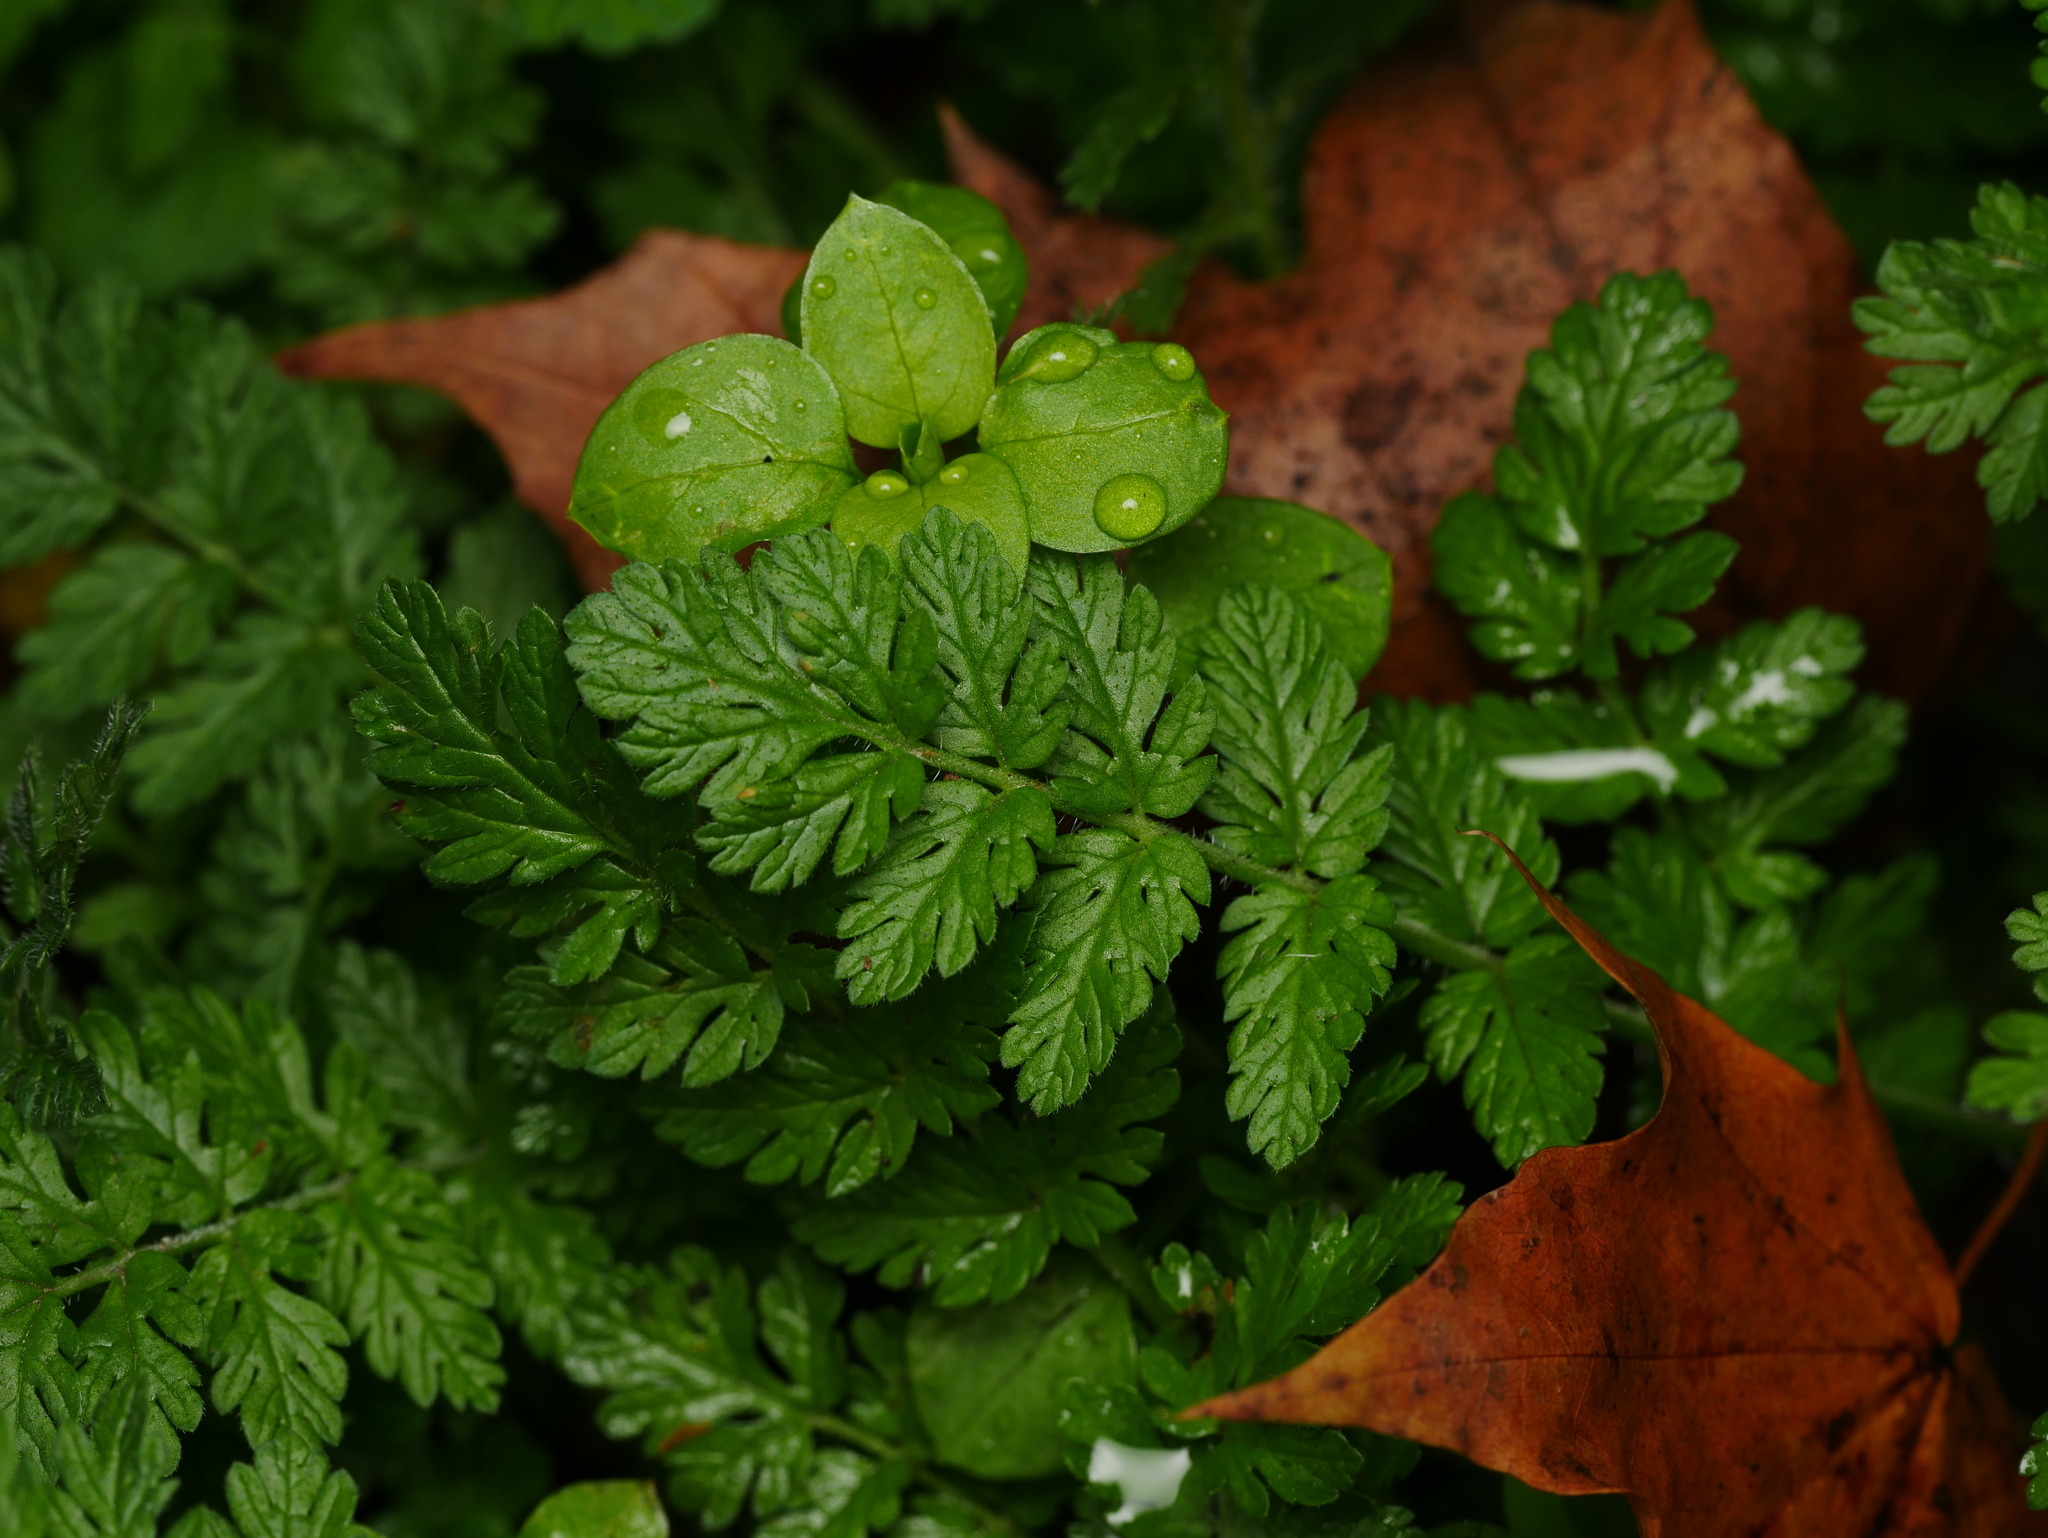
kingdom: Plantae
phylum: Tracheophyta
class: Magnoliopsida
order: Geraniales
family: Geraniaceae
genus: Erodium
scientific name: Erodium cicutarium
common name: Common stork's-bill
